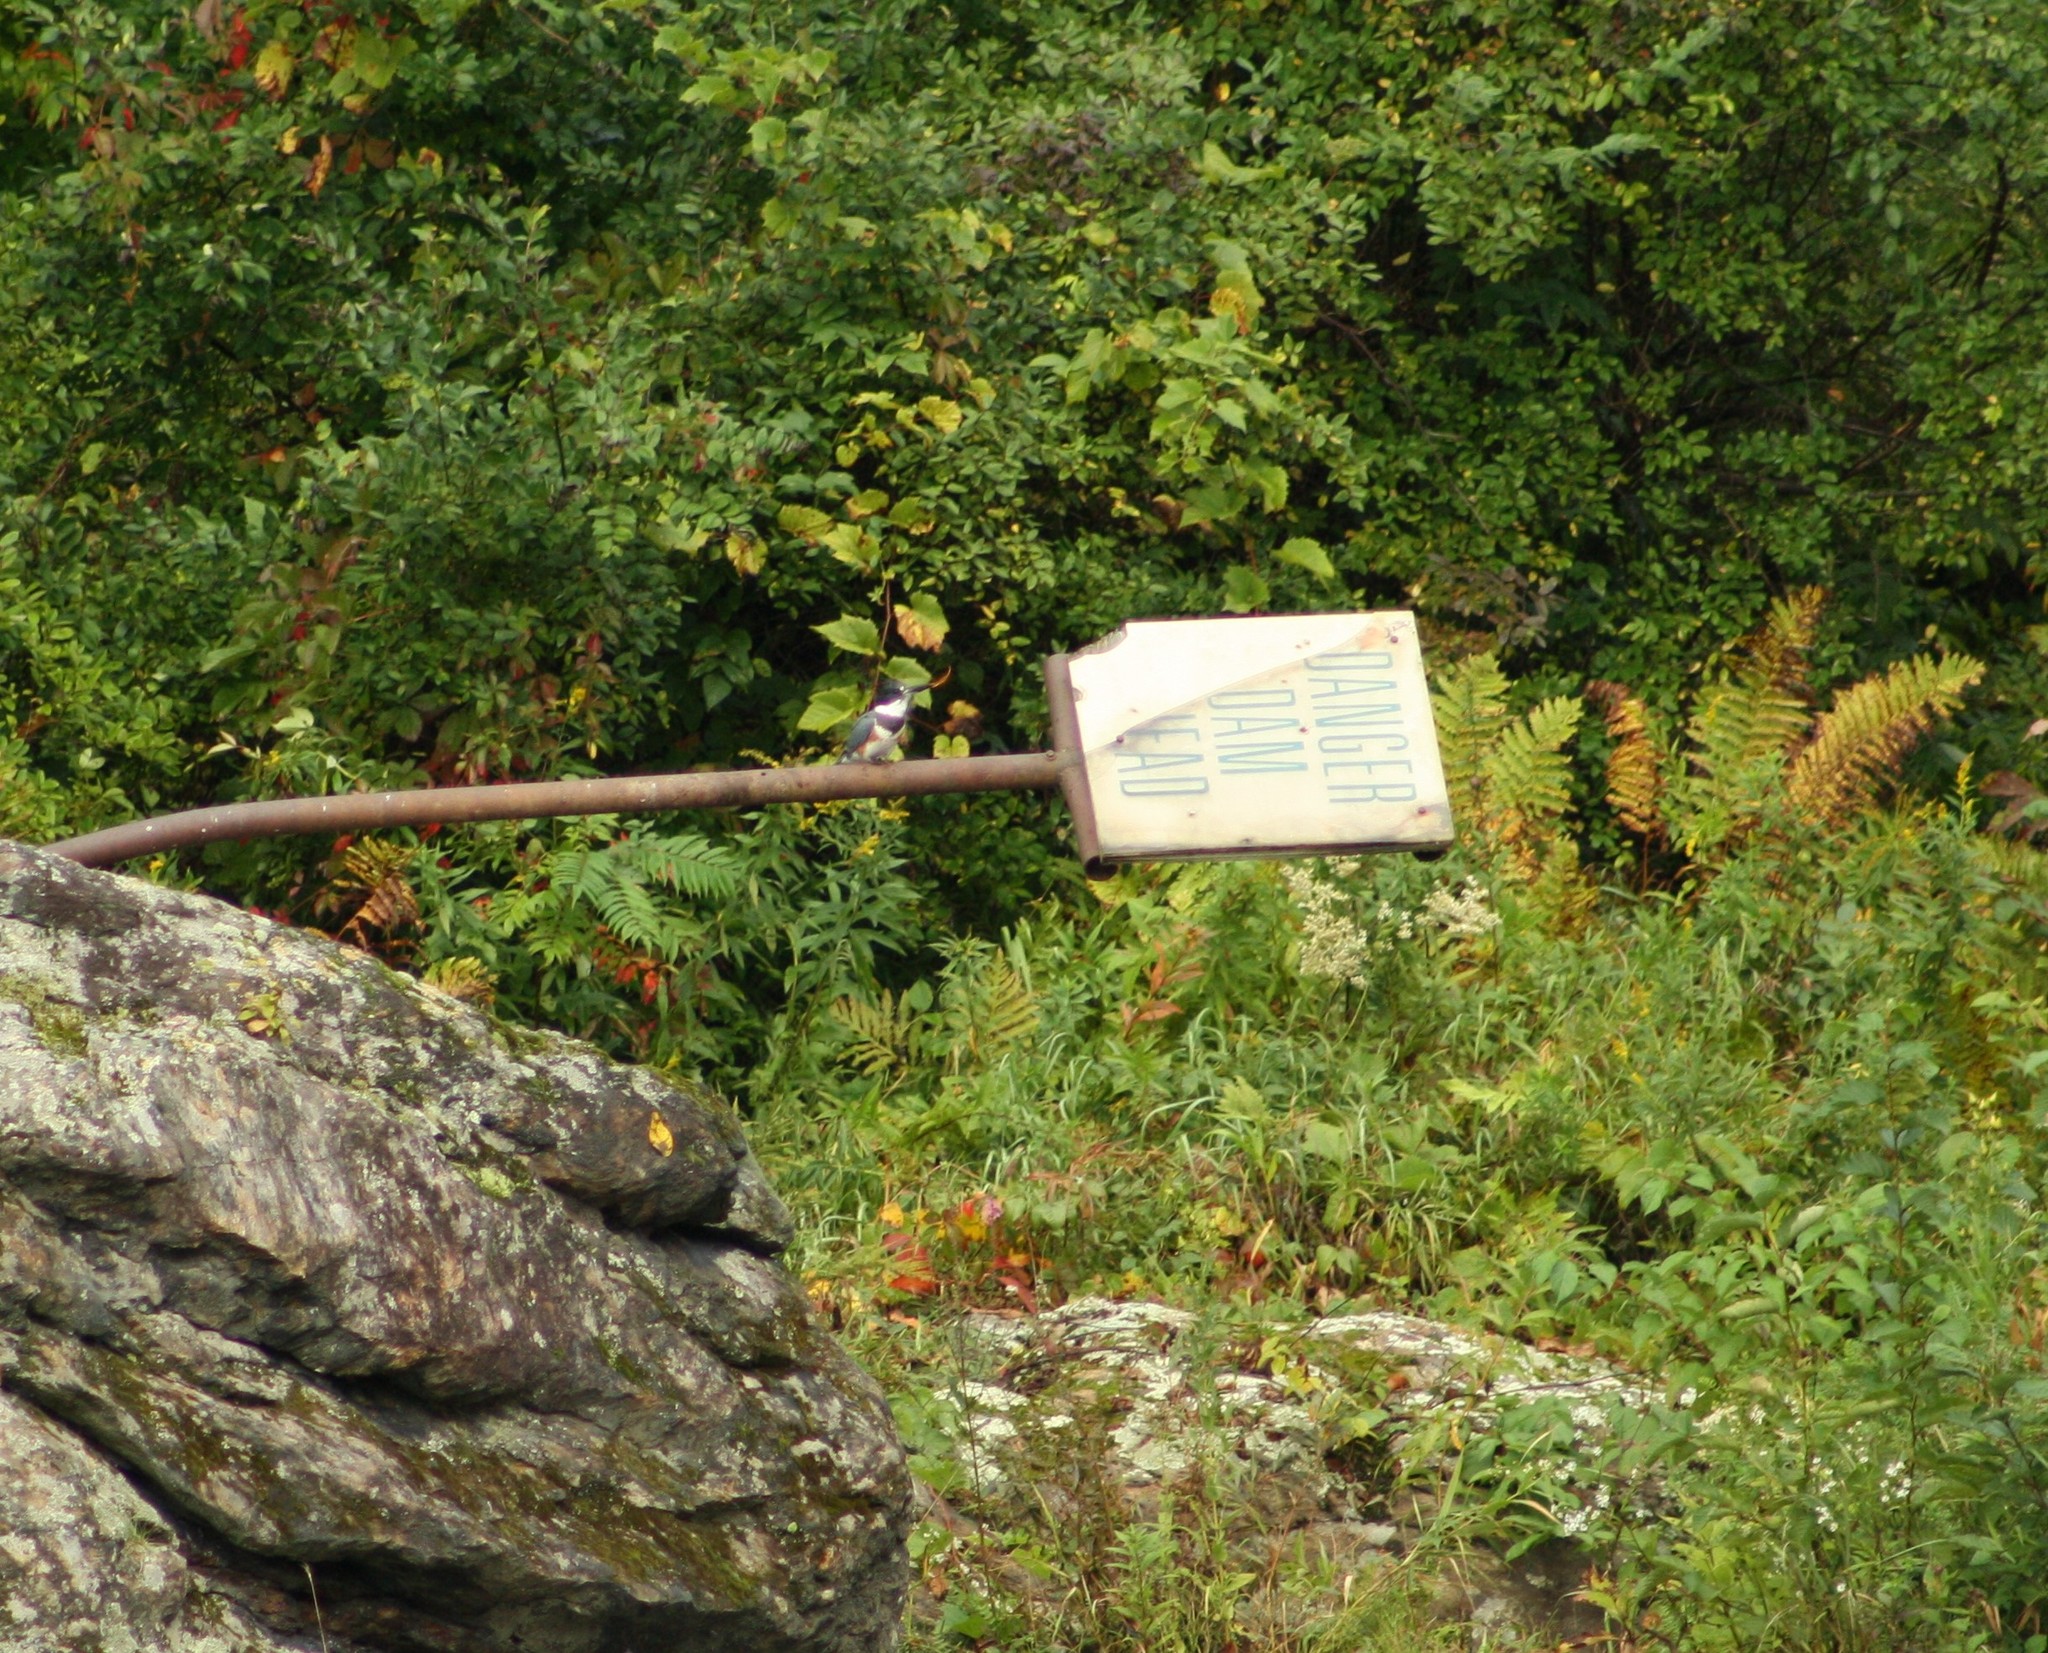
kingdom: Animalia
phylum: Chordata
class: Aves
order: Coraciiformes
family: Alcedinidae
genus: Megaceryle
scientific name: Megaceryle alcyon
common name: Belted kingfisher
